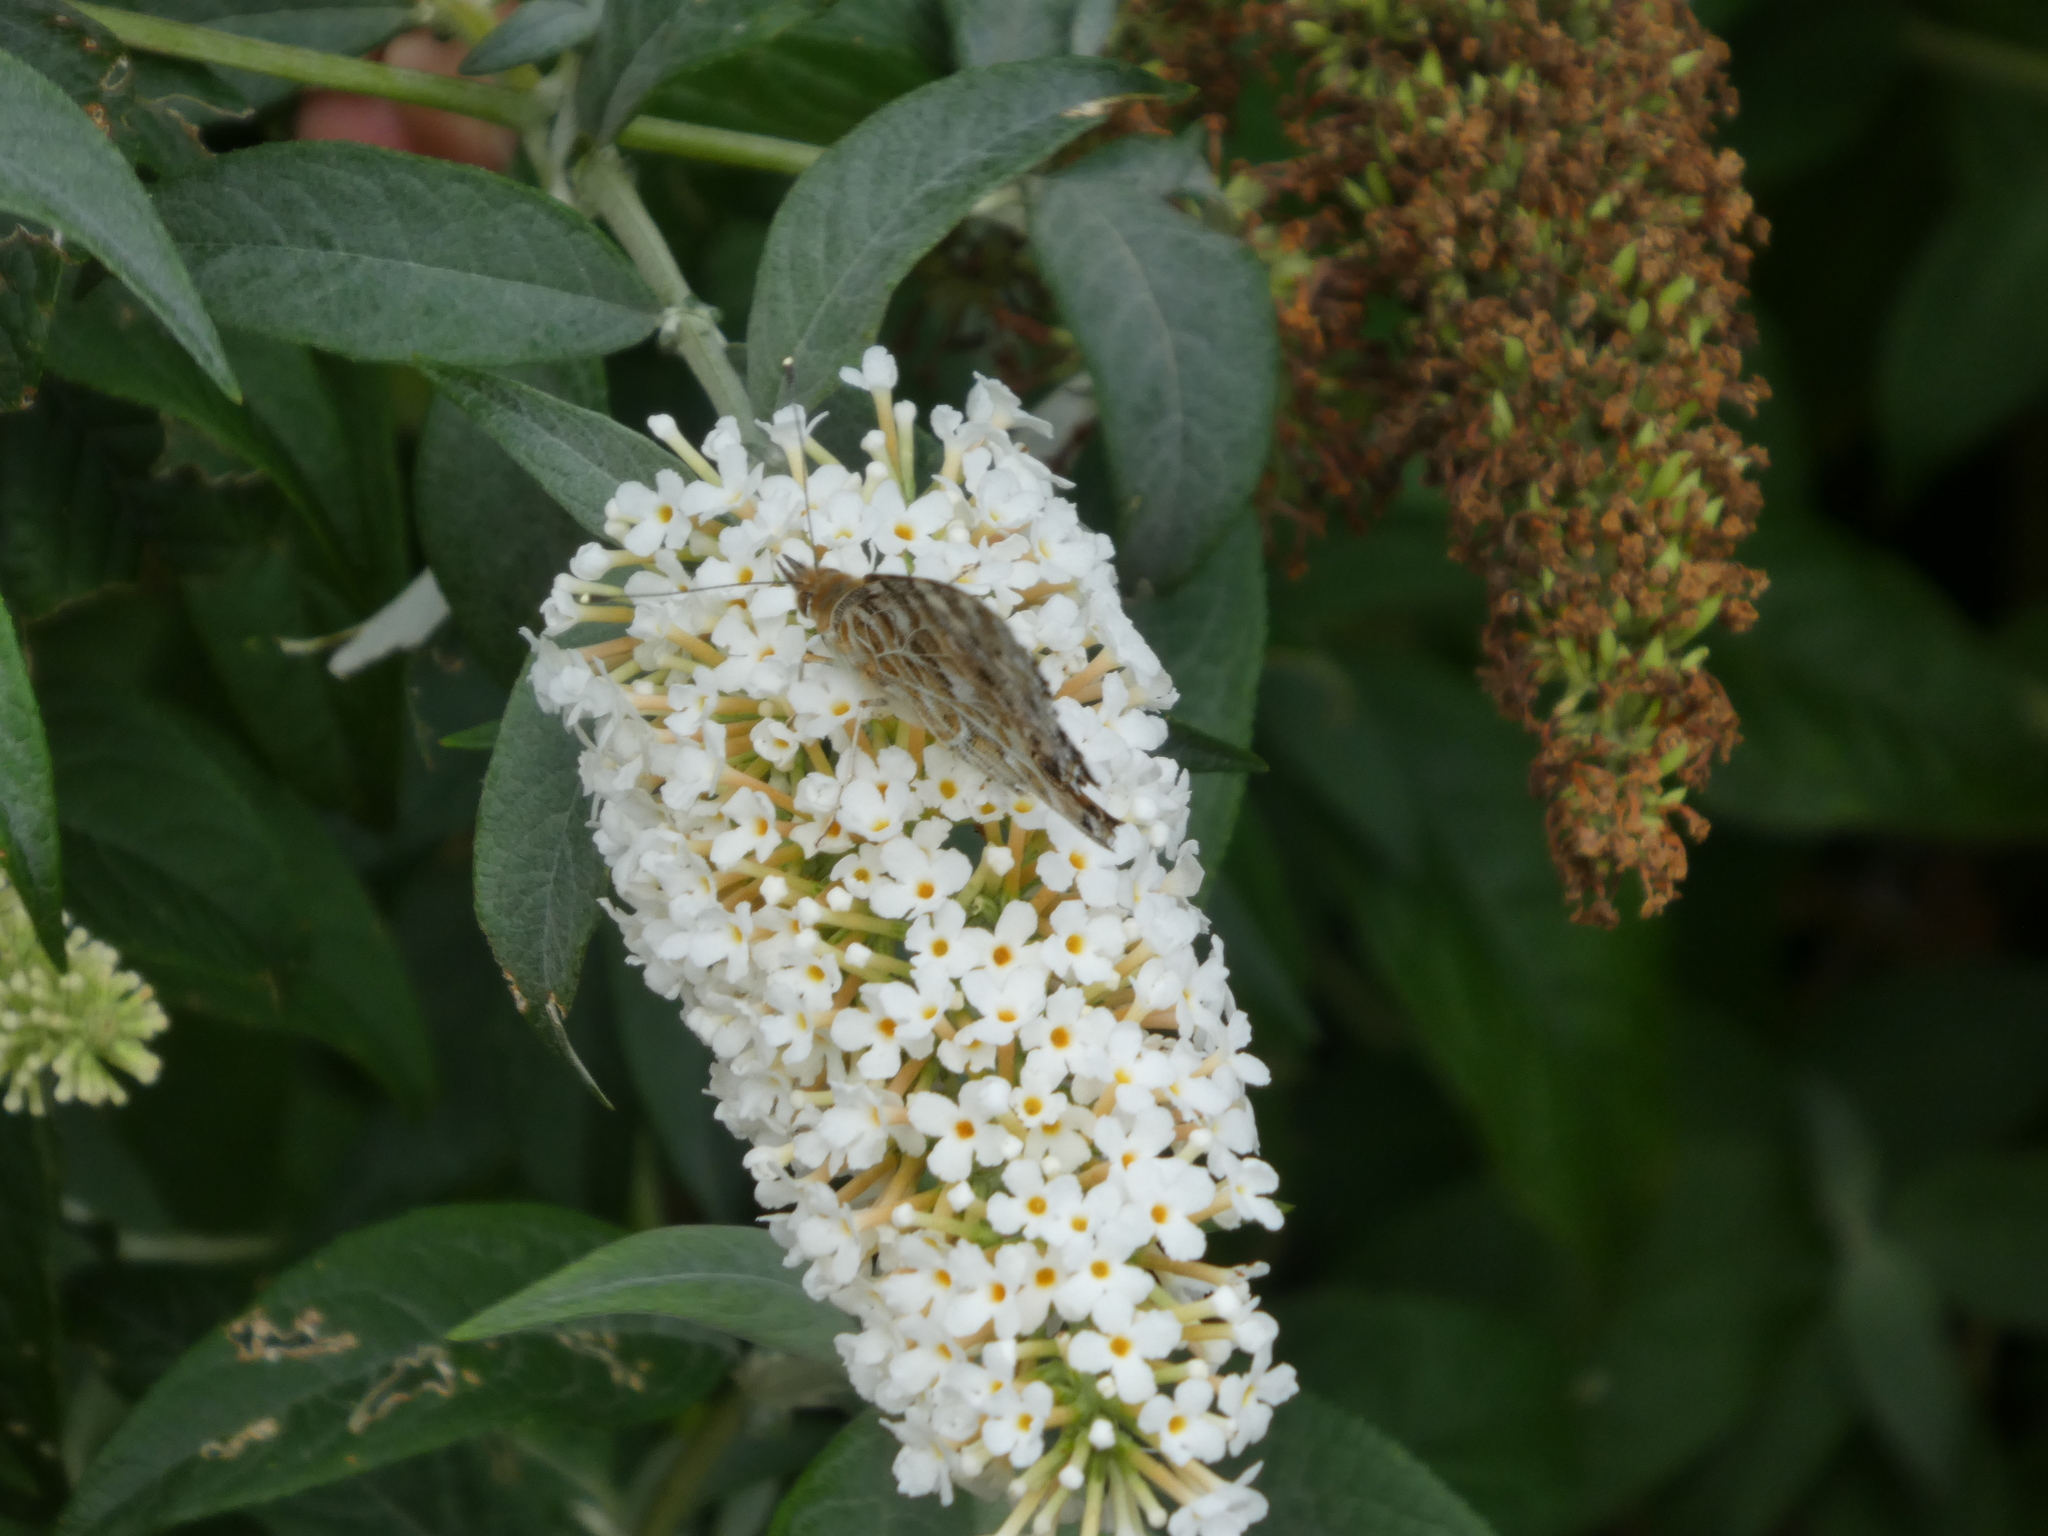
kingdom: Plantae
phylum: Tracheophyta
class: Magnoliopsida
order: Lamiales
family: Scrophulariaceae
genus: Buddleja
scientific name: Buddleja davidii
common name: Butterfly-bush
